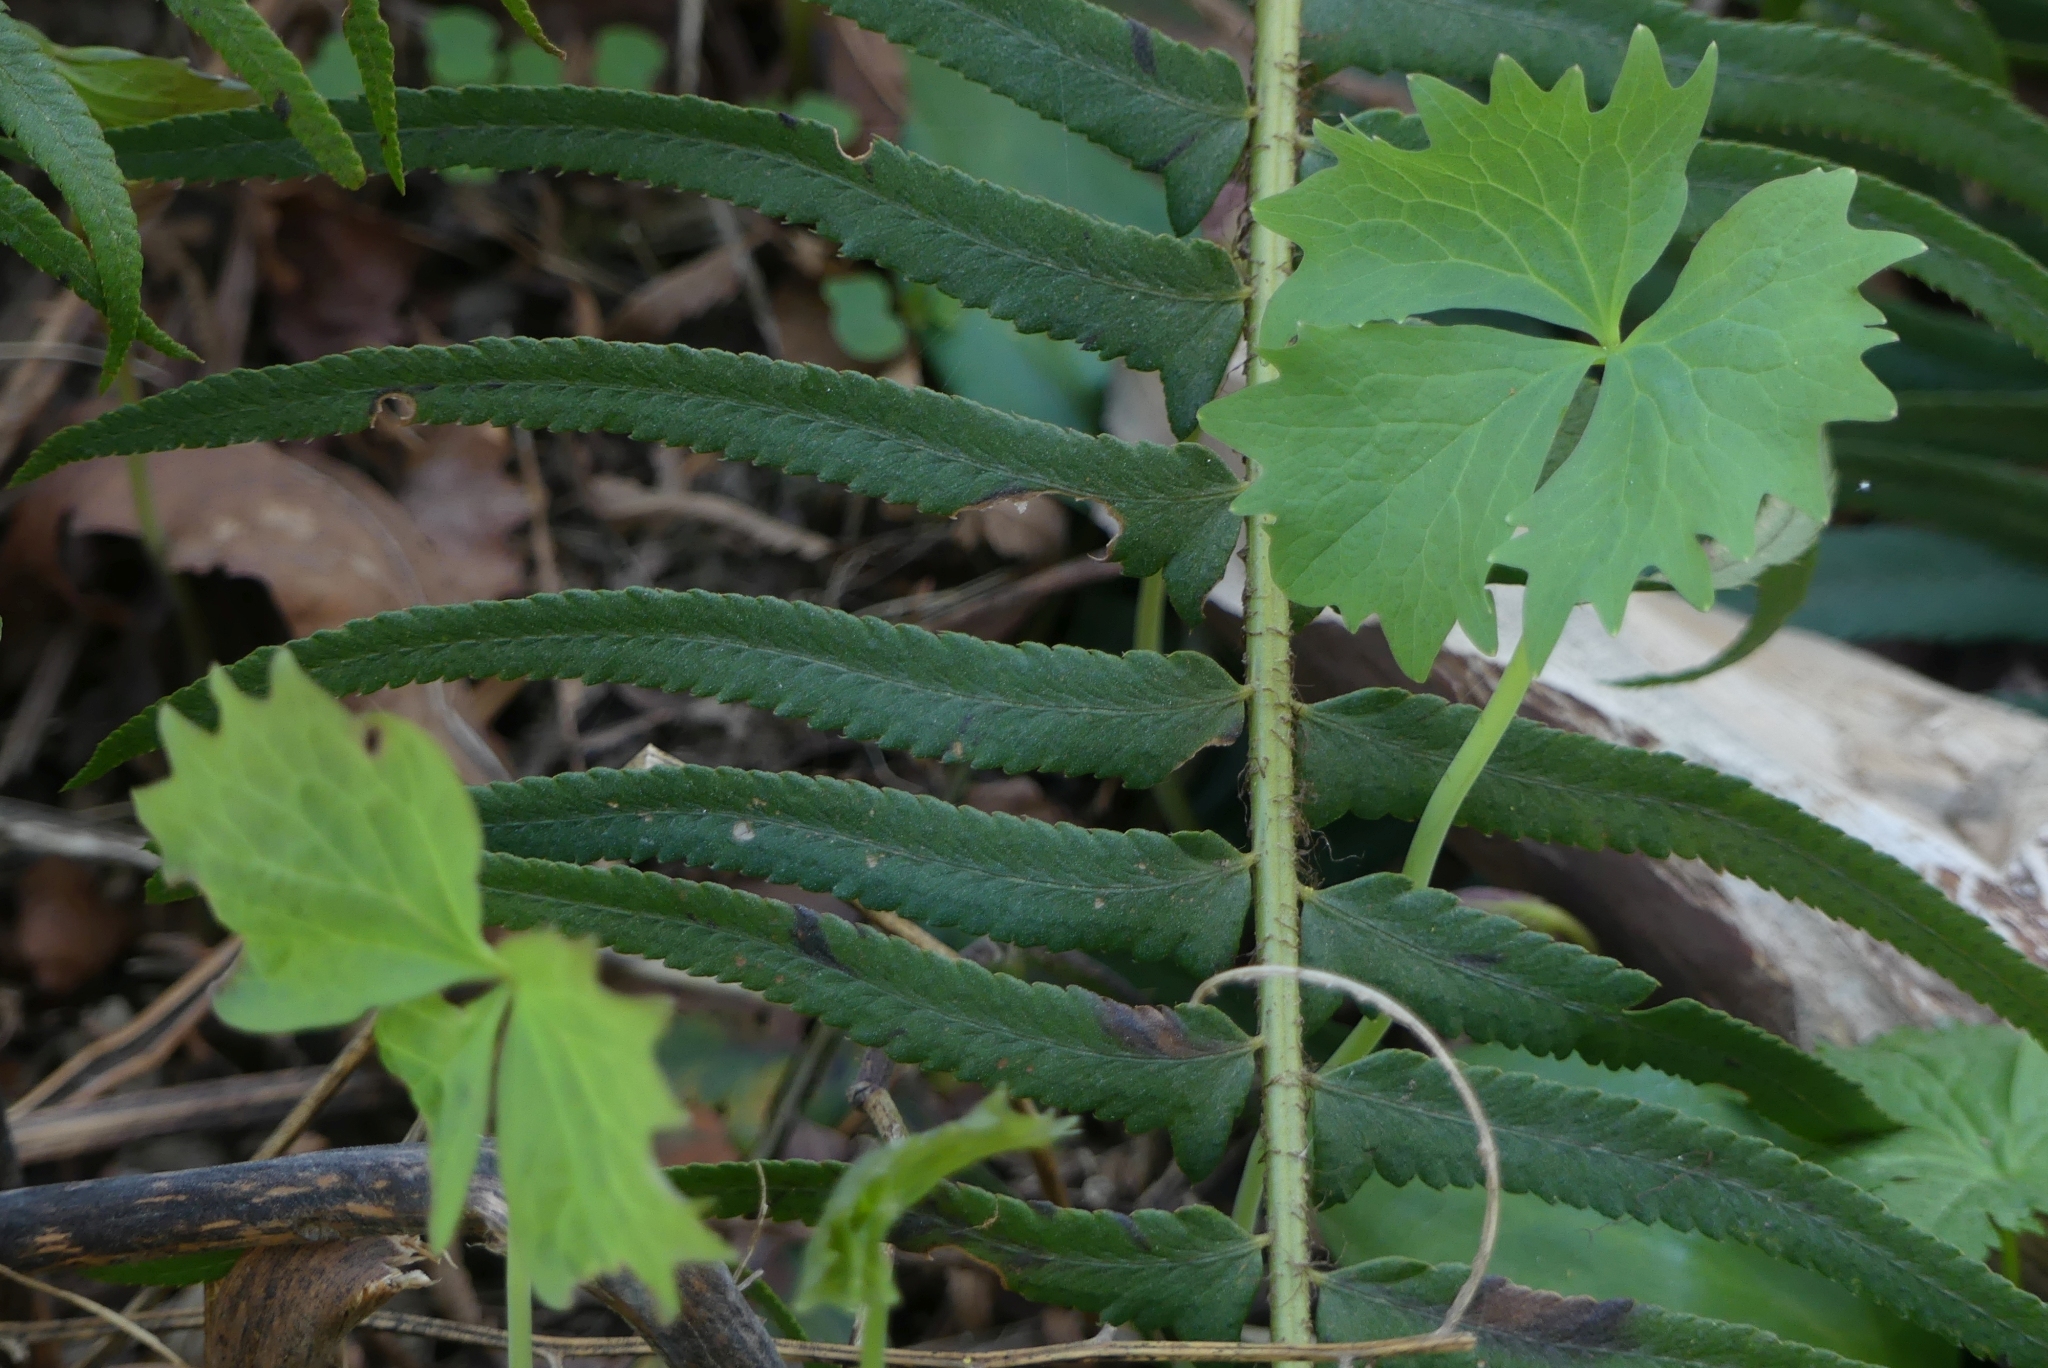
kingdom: Plantae
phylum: Tracheophyta
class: Polypodiopsida
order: Polypodiales
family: Dryopteridaceae
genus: Polystichum
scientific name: Polystichum munitum
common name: Western sword-fern
